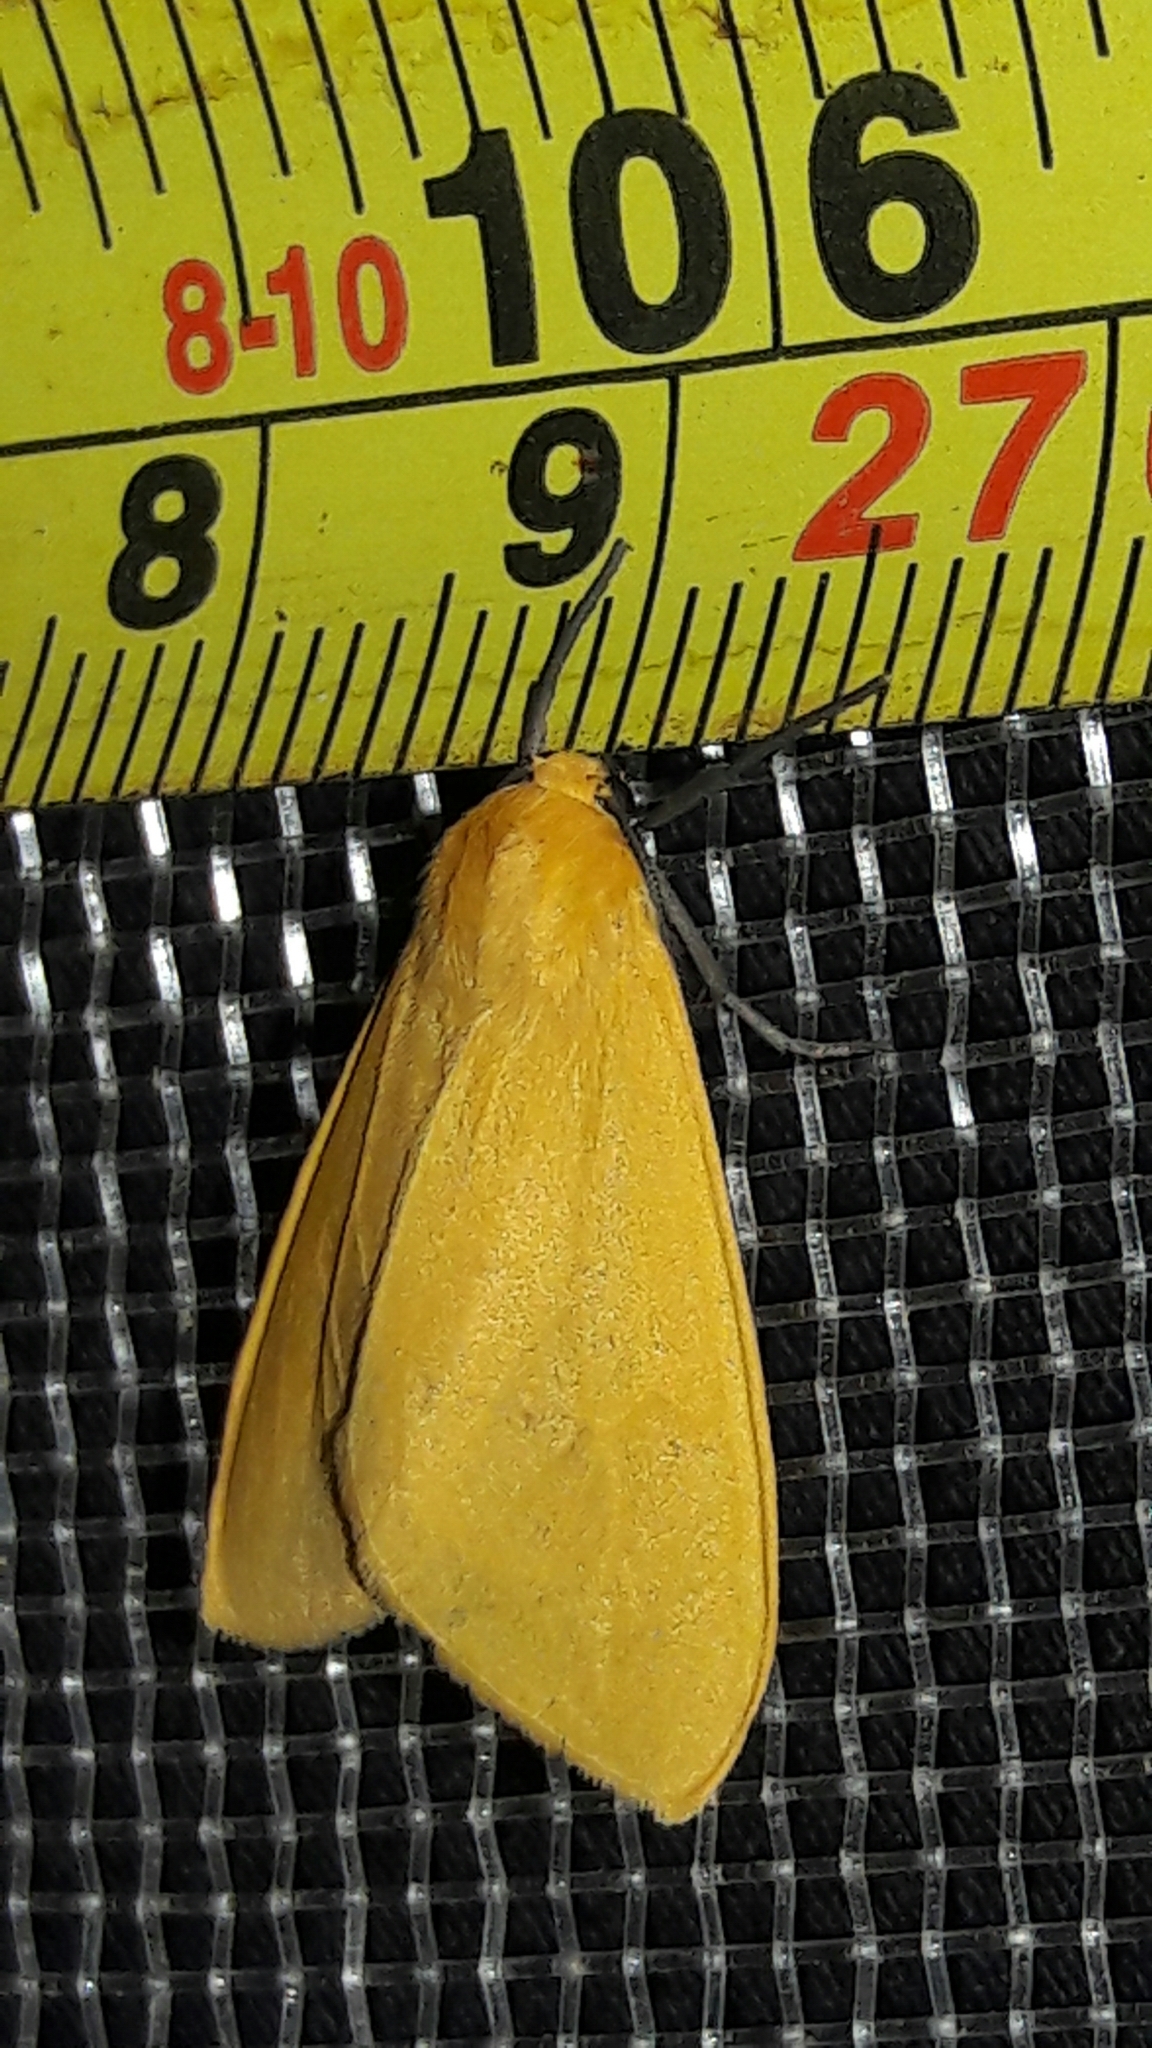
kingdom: Animalia
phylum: Arthropoda
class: Insecta
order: Lepidoptera
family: Erebidae
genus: Pareuchaetes
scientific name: Pareuchaetes aurata
